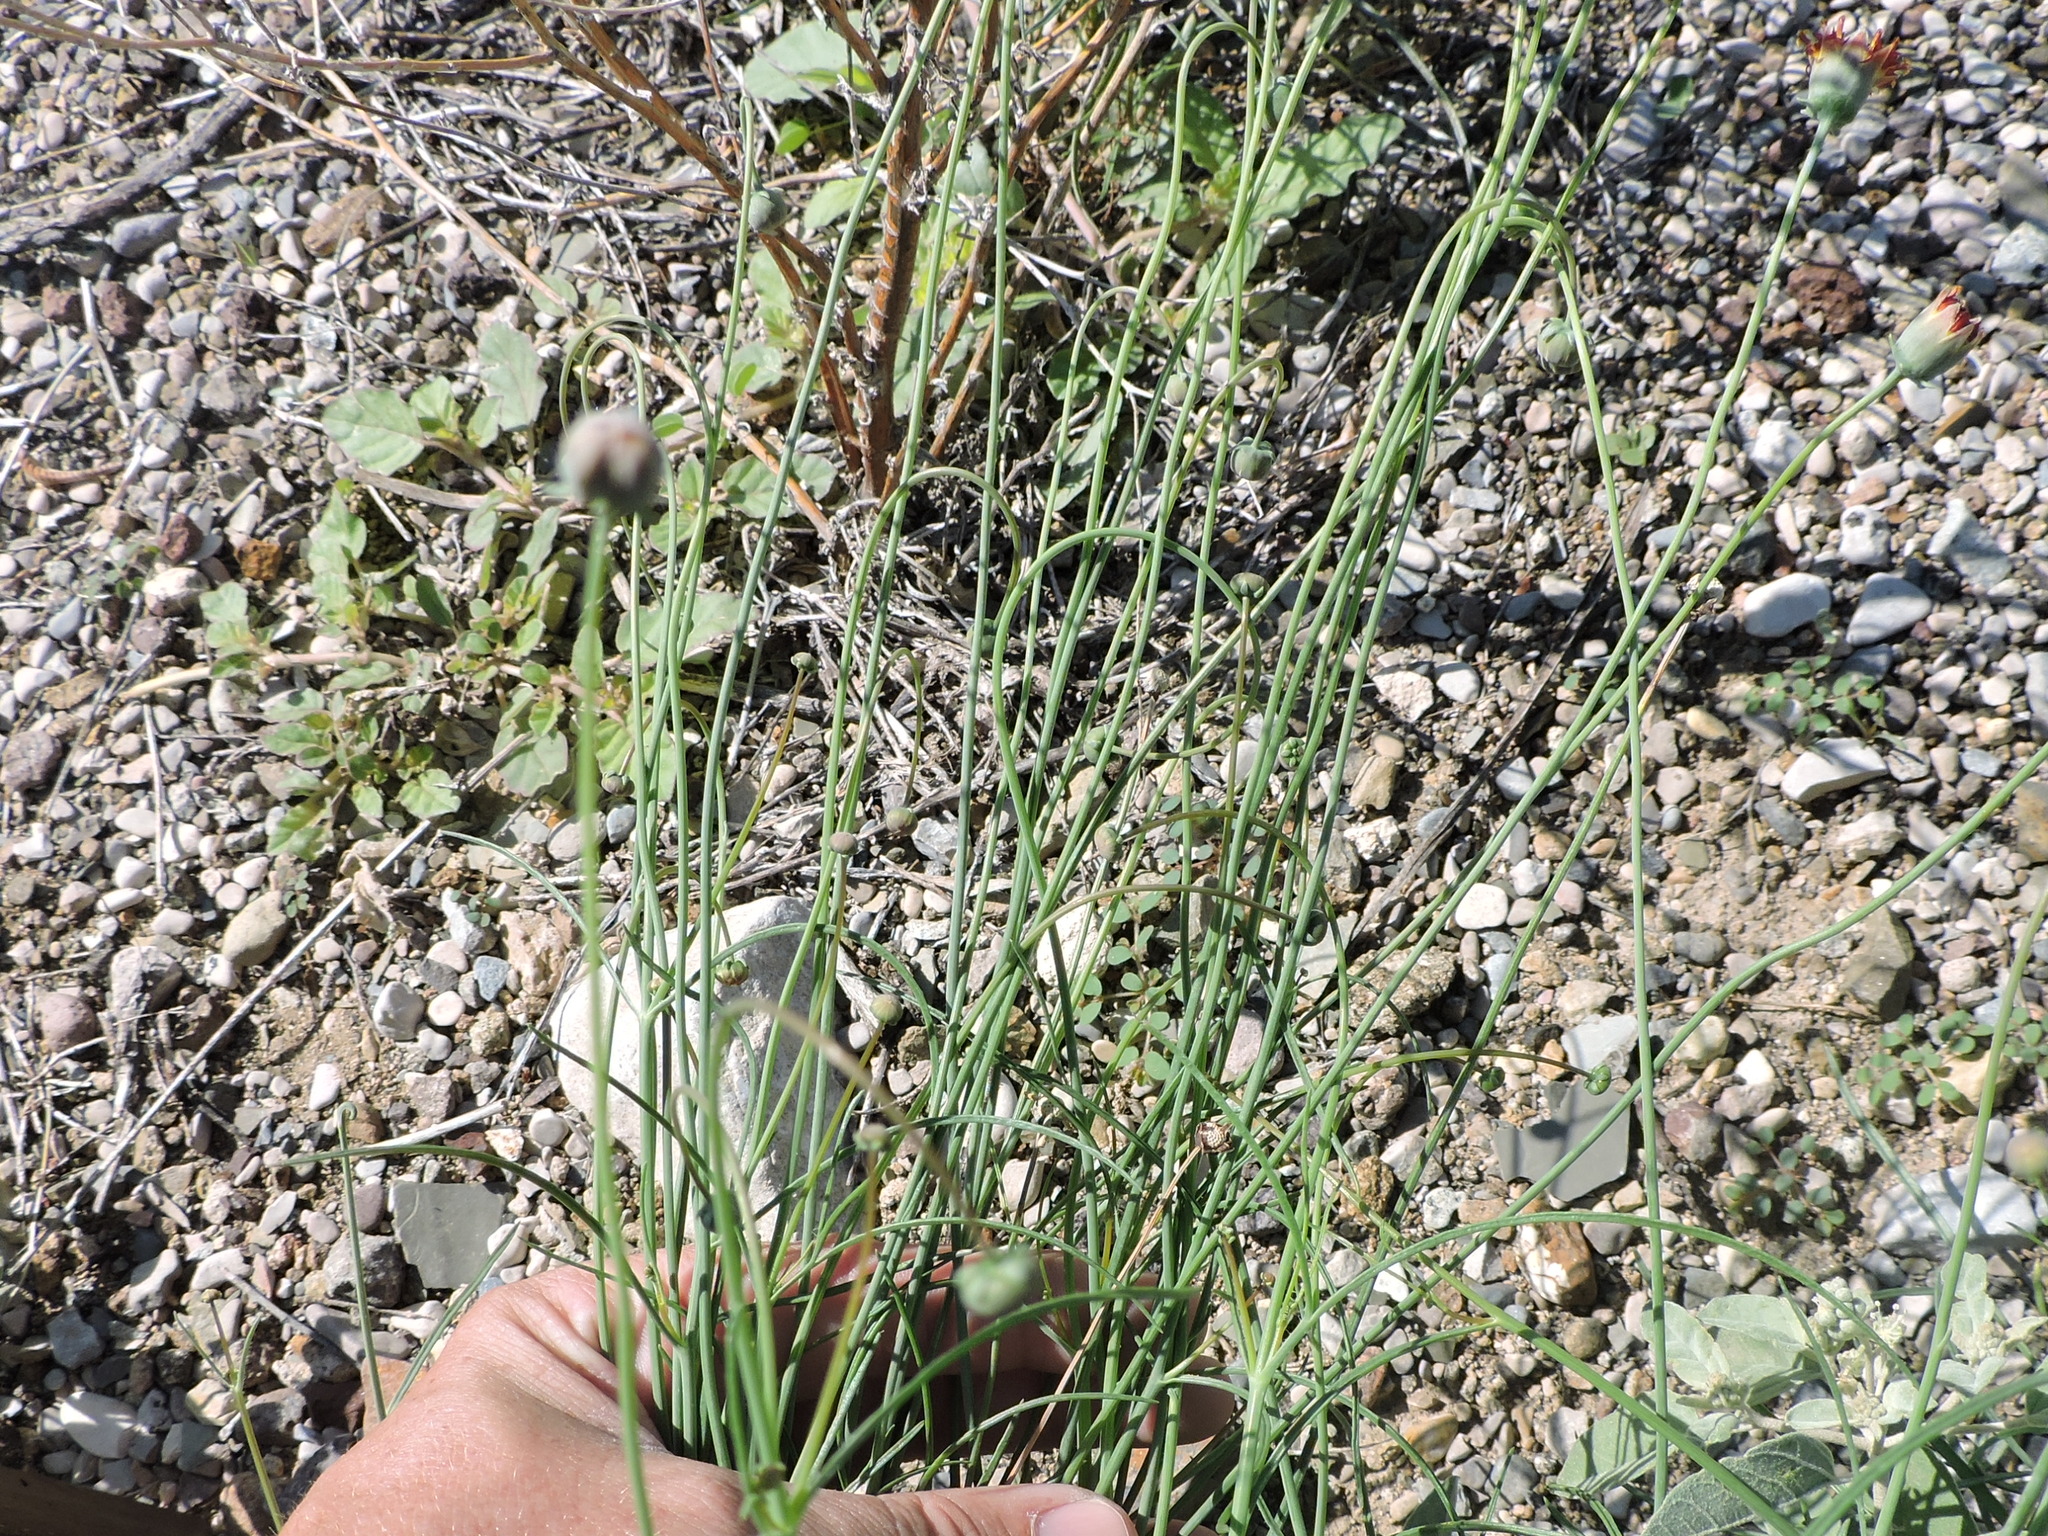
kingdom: Plantae
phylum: Tracheophyta
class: Magnoliopsida
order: Asterales
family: Asteraceae
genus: Thelesperma
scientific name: Thelesperma ambiguum
